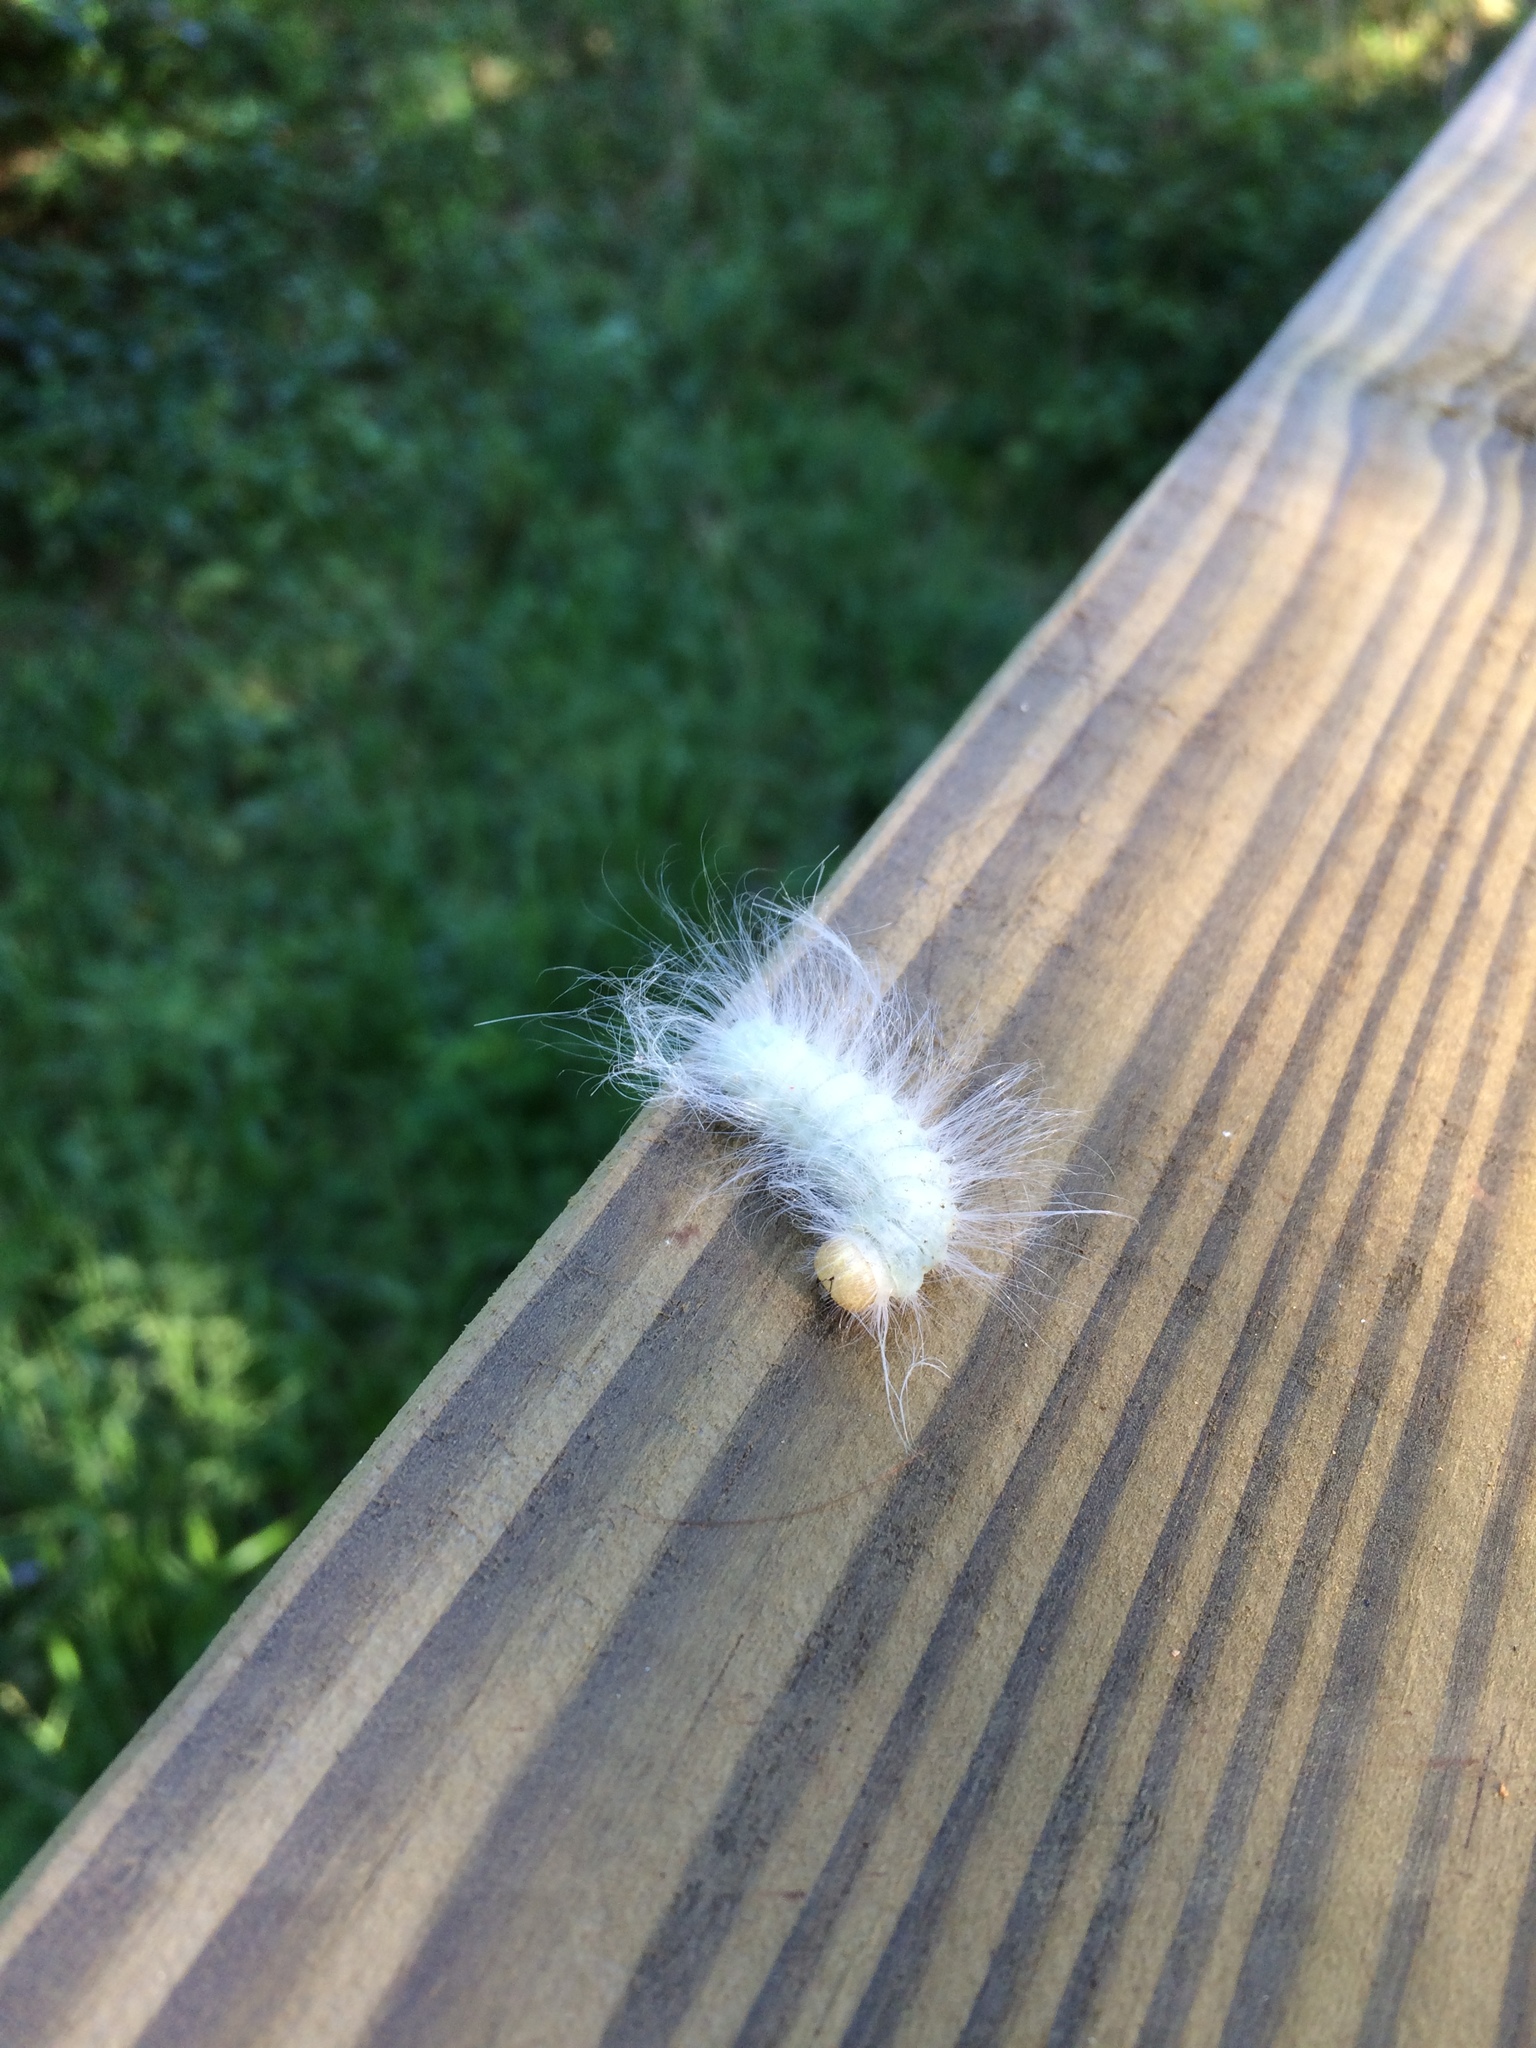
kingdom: Animalia
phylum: Arthropoda
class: Insecta
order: Lepidoptera
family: Noctuidae
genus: Charadra
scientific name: Charadra deridens
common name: Marbled tuffet
